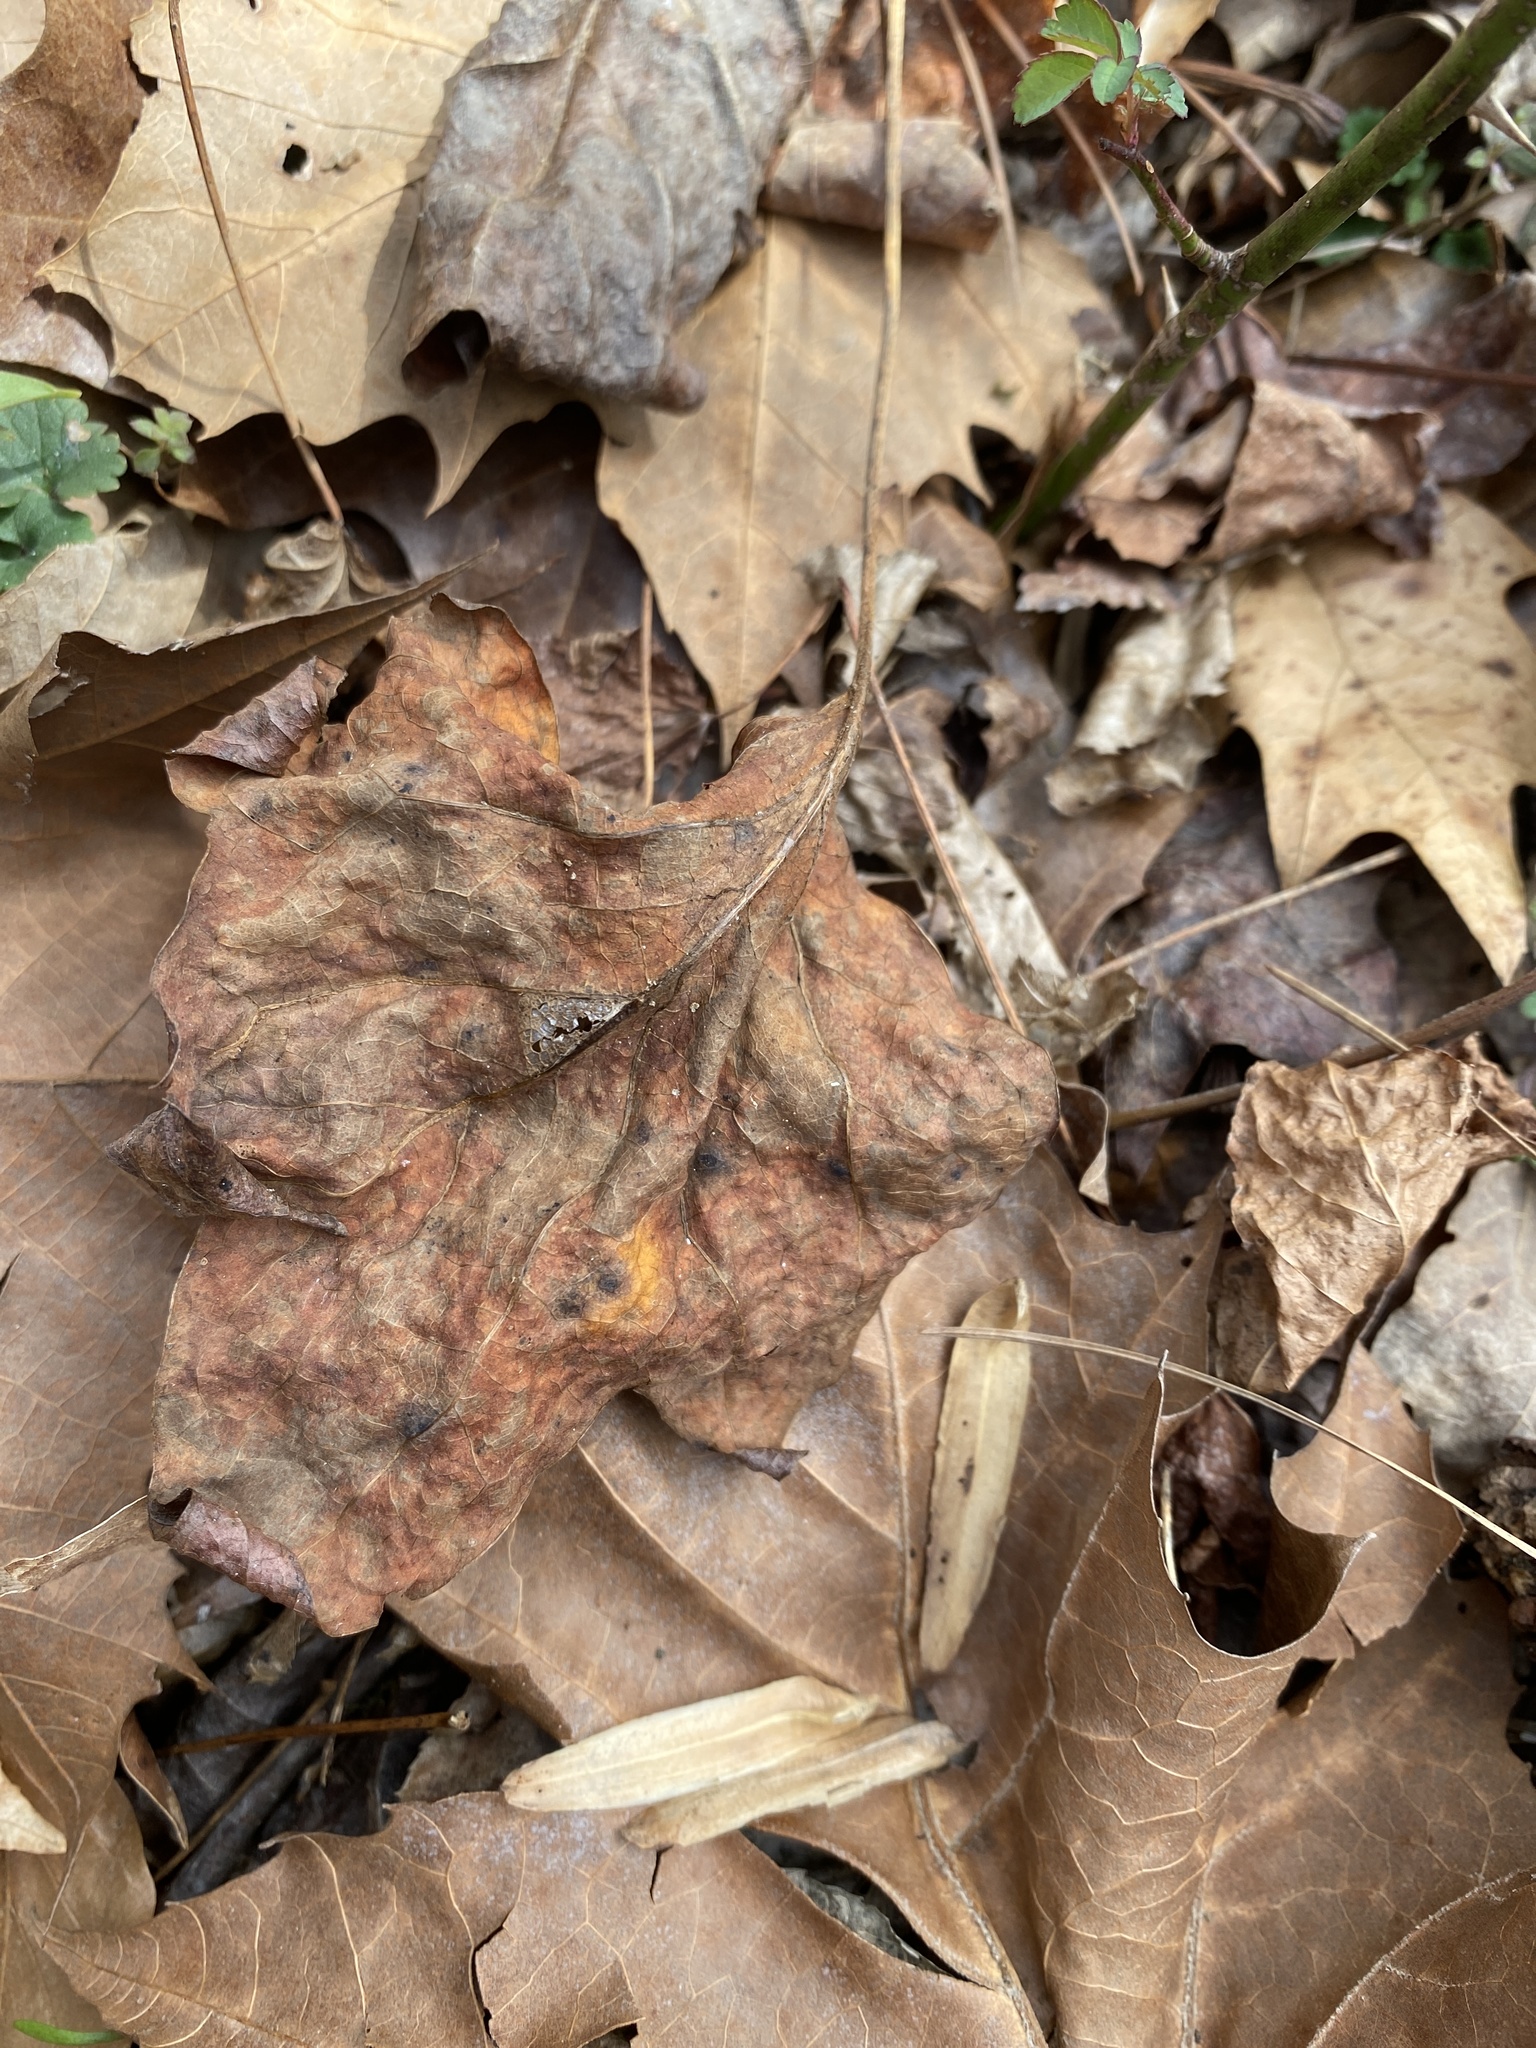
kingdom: Plantae
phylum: Tracheophyta
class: Magnoliopsida
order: Magnoliales
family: Magnoliaceae
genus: Liriodendron
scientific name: Liriodendron tulipifera
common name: Tulip tree
